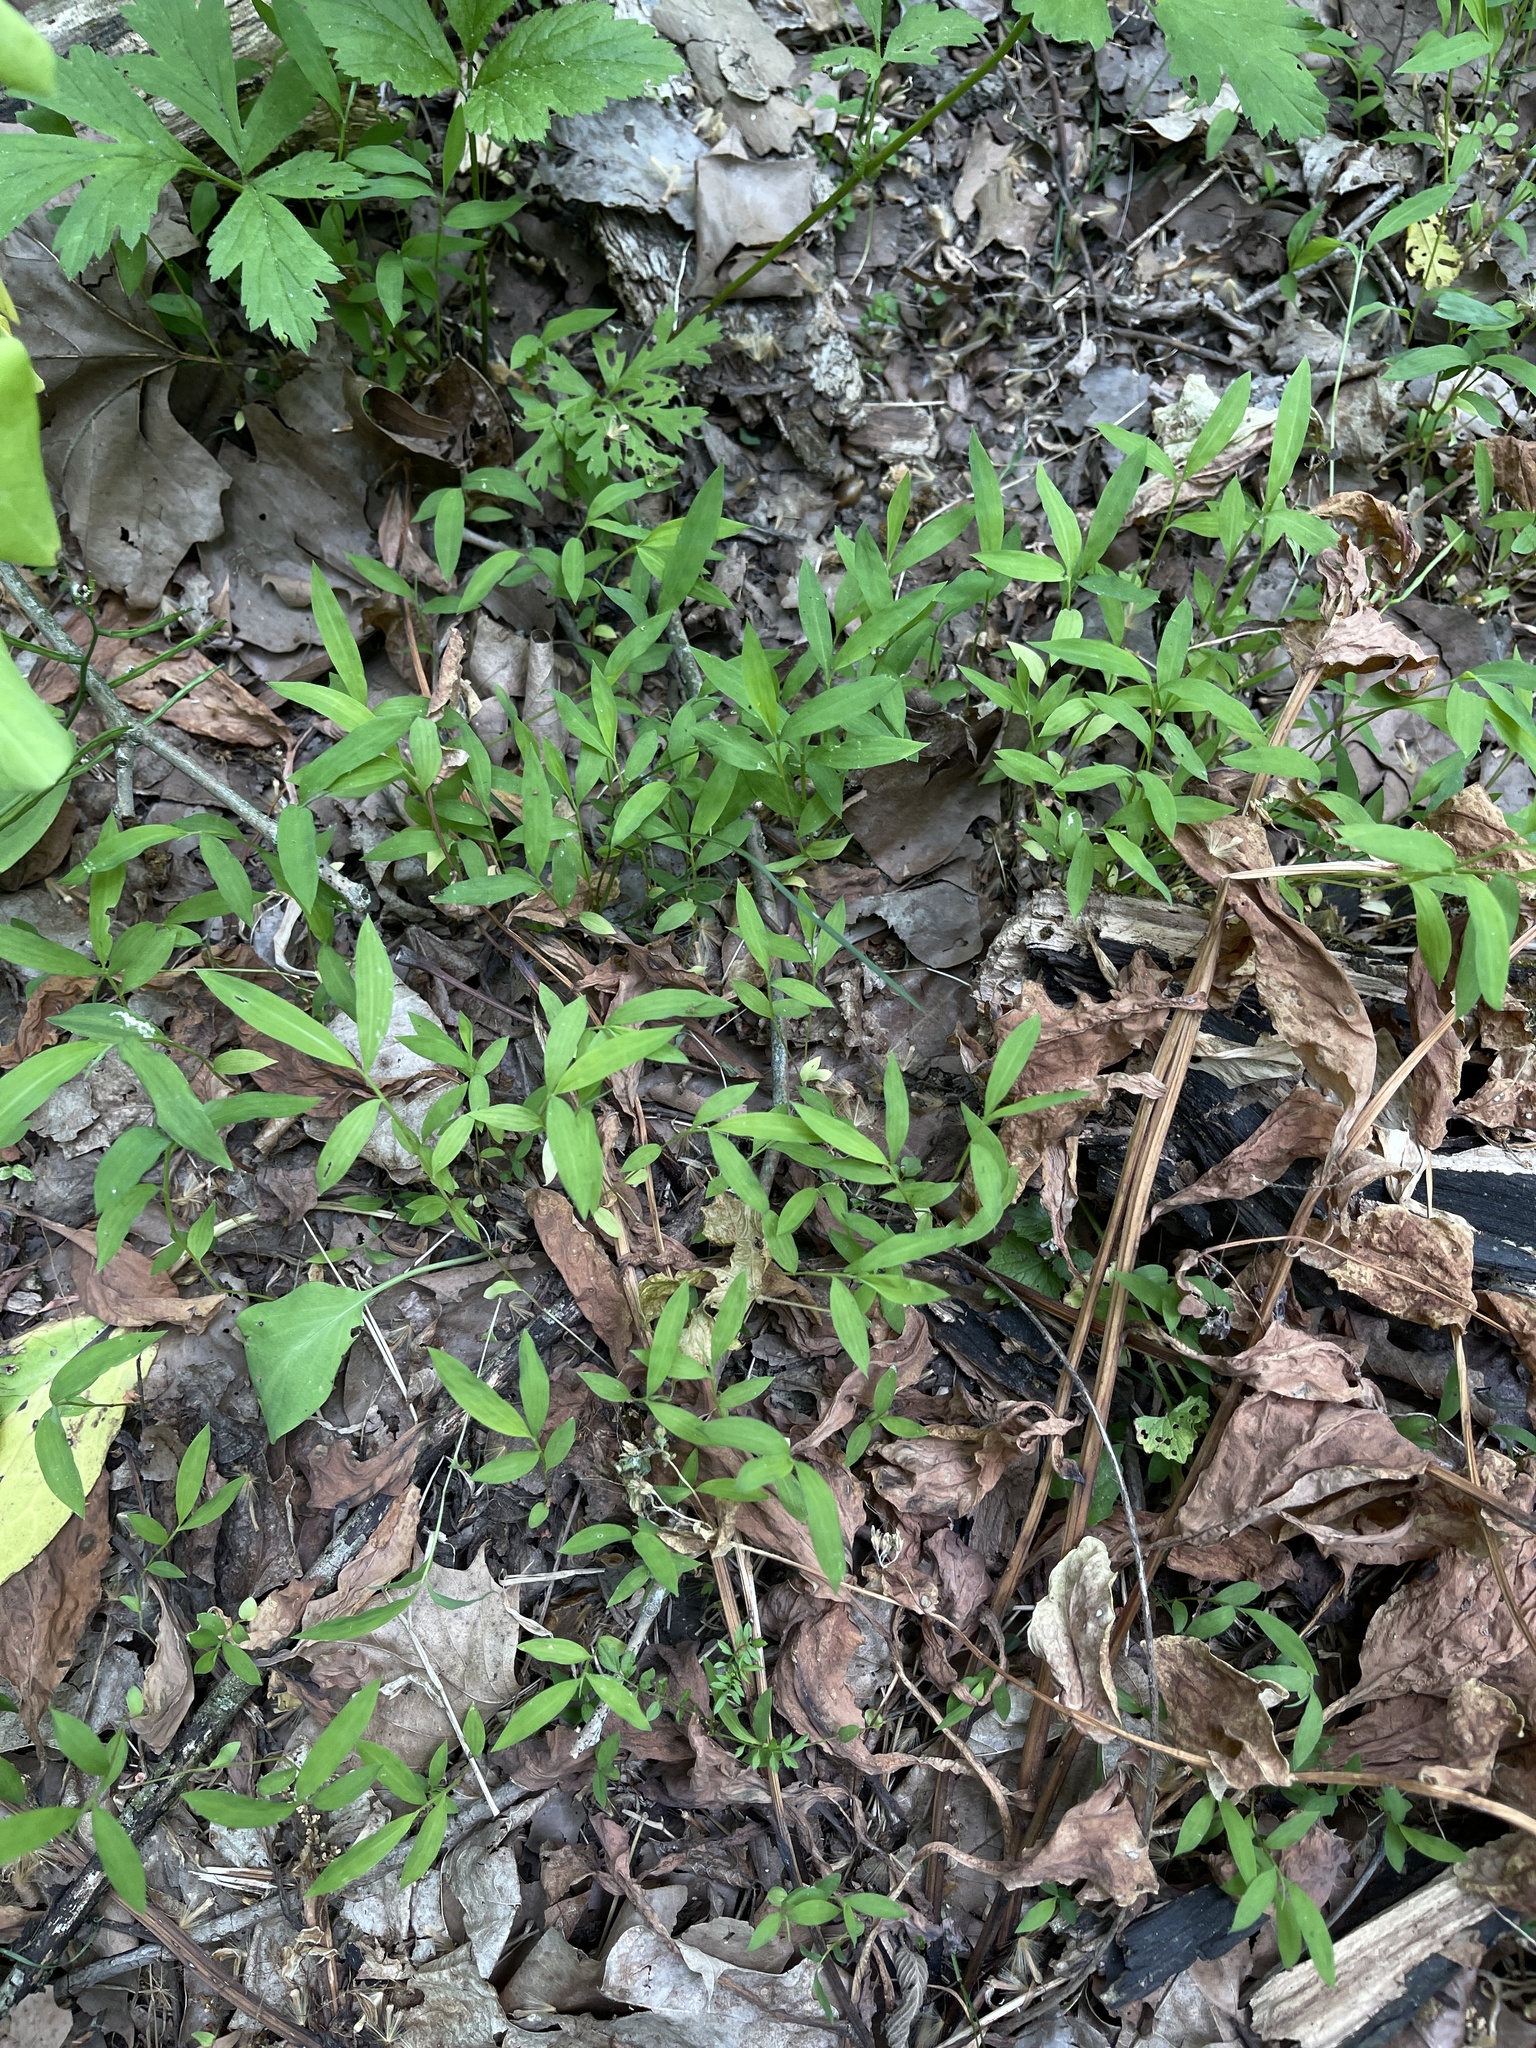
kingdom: Plantae
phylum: Tracheophyta
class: Liliopsida
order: Poales
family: Poaceae
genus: Microstegium
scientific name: Microstegium vimineum
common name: Japanese stiltgrass
